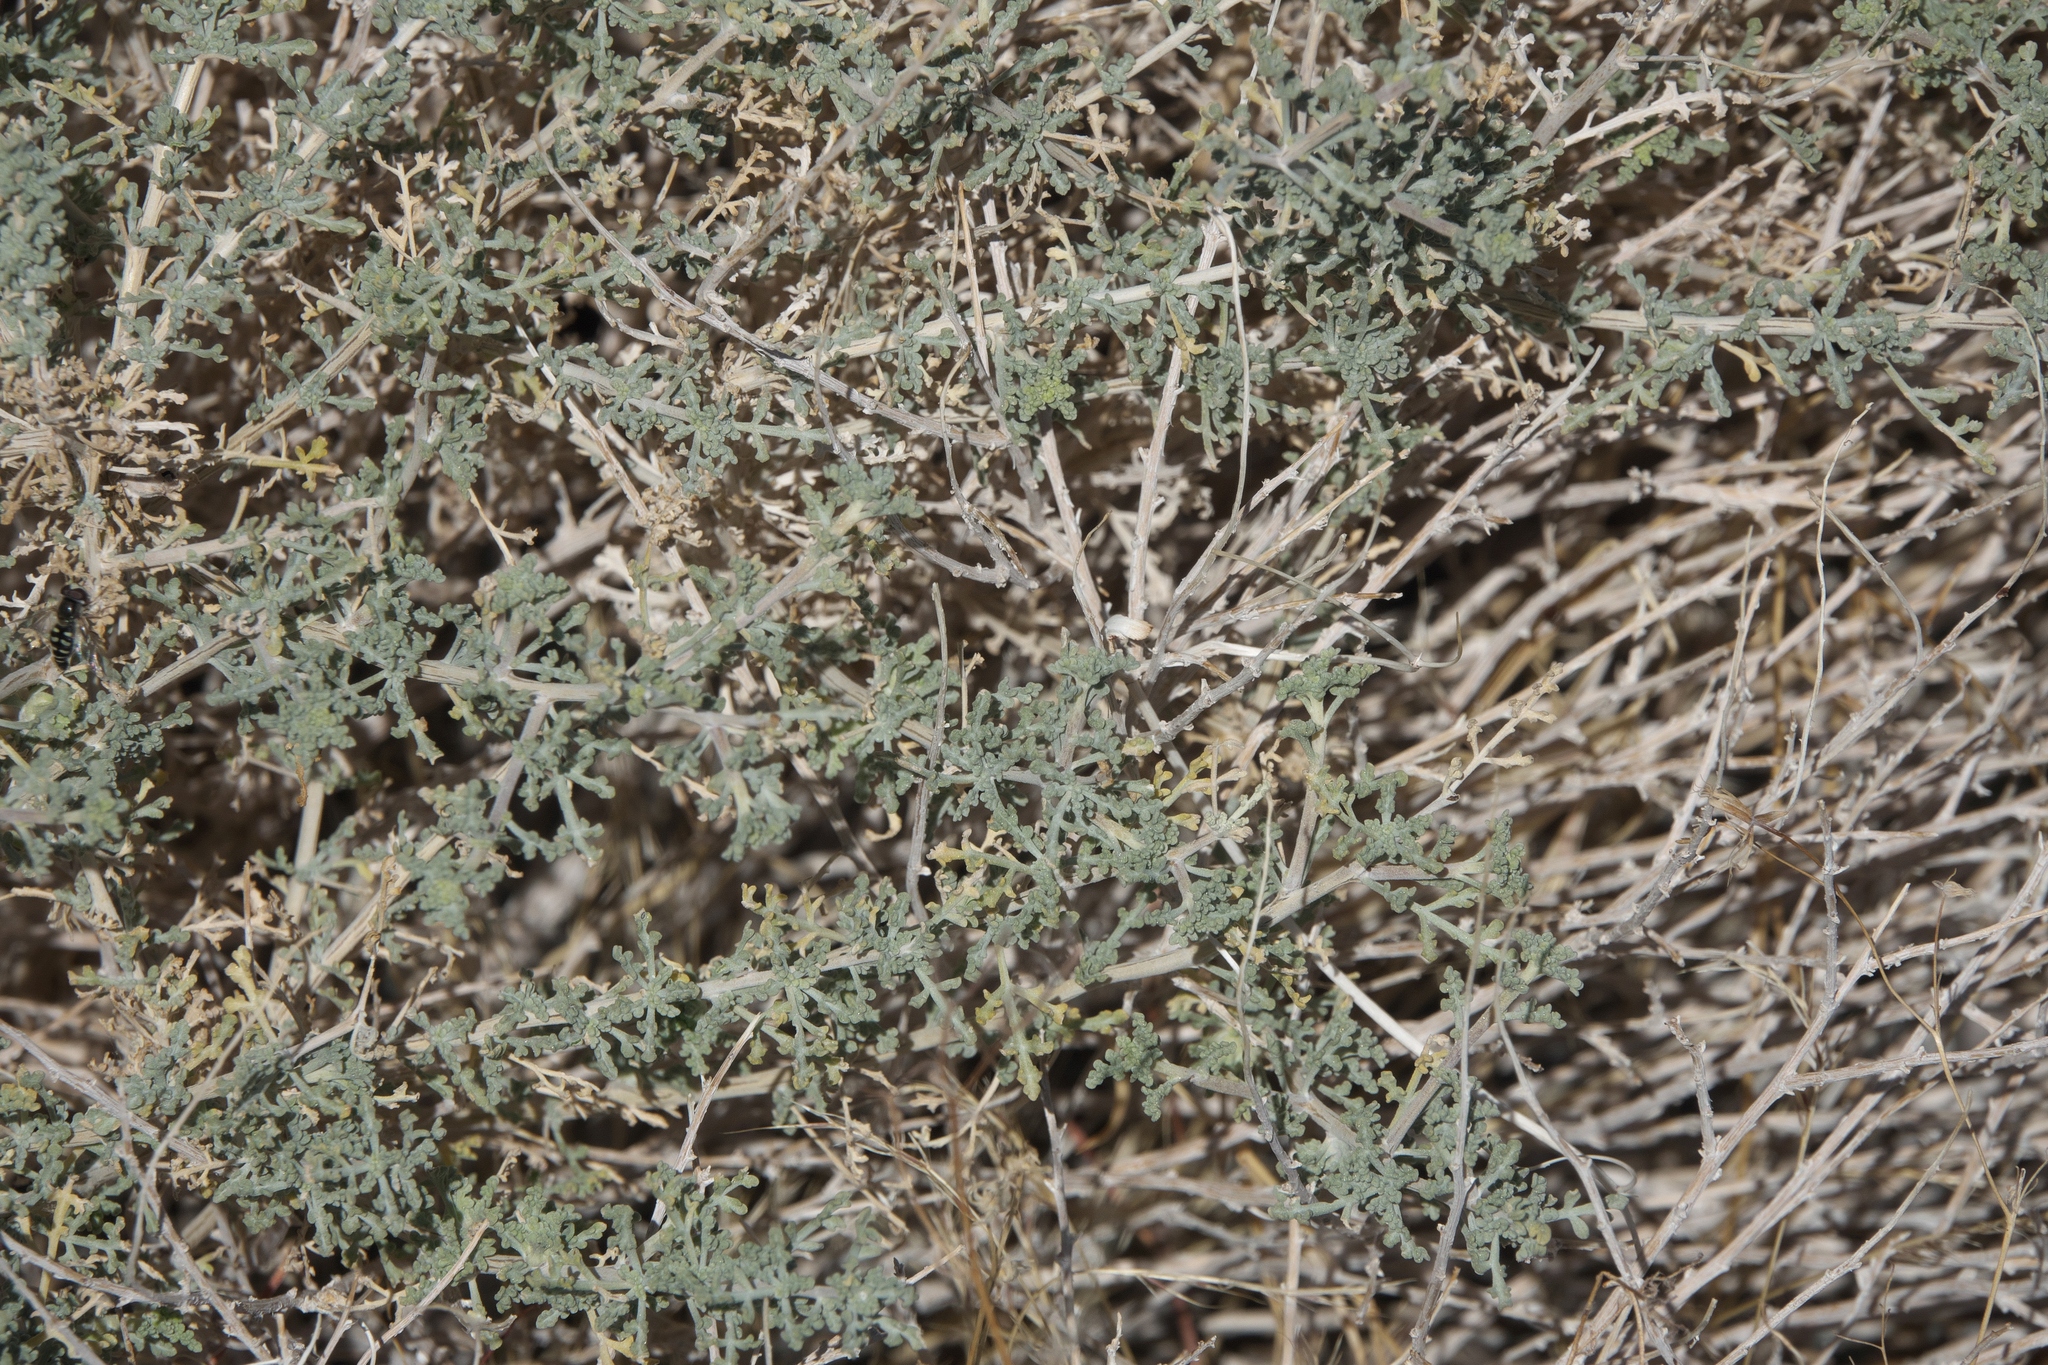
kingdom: Plantae
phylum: Tracheophyta
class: Magnoliopsida
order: Asterales
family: Asteraceae
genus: Ambrosia
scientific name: Ambrosia dumosa
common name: Bur-sage
